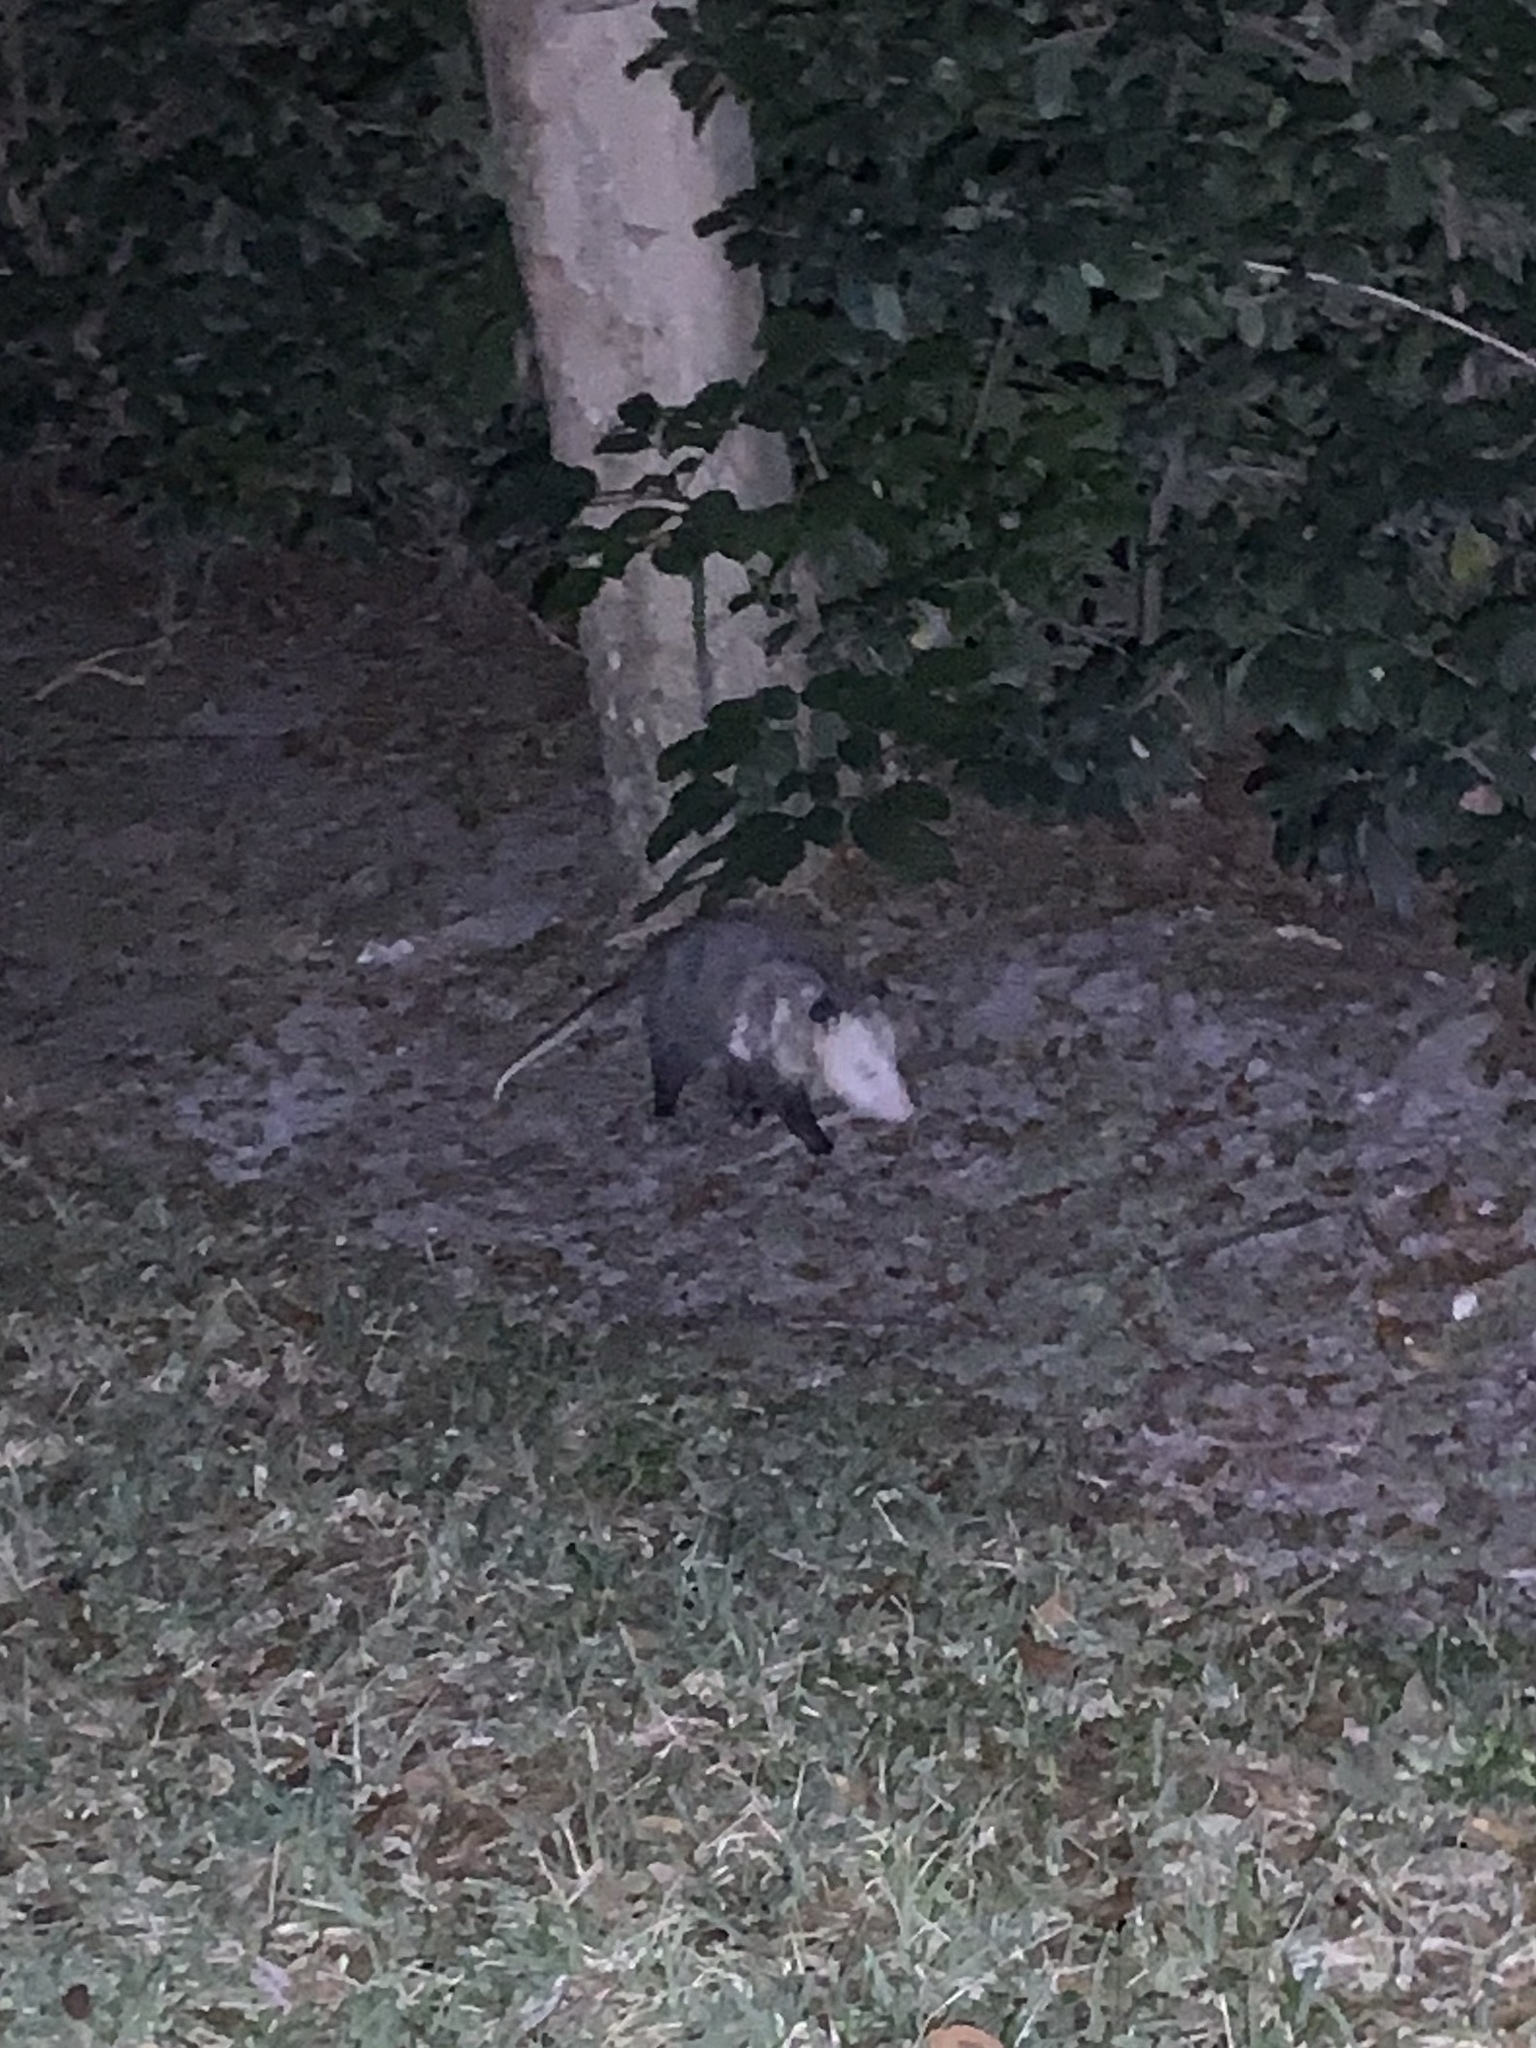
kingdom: Animalia
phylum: Chordata
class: Mammalia
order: Didelphimorphia
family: Didelphidae
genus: Didelphis
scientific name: Didelphis virginiana
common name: Virginia opossum
